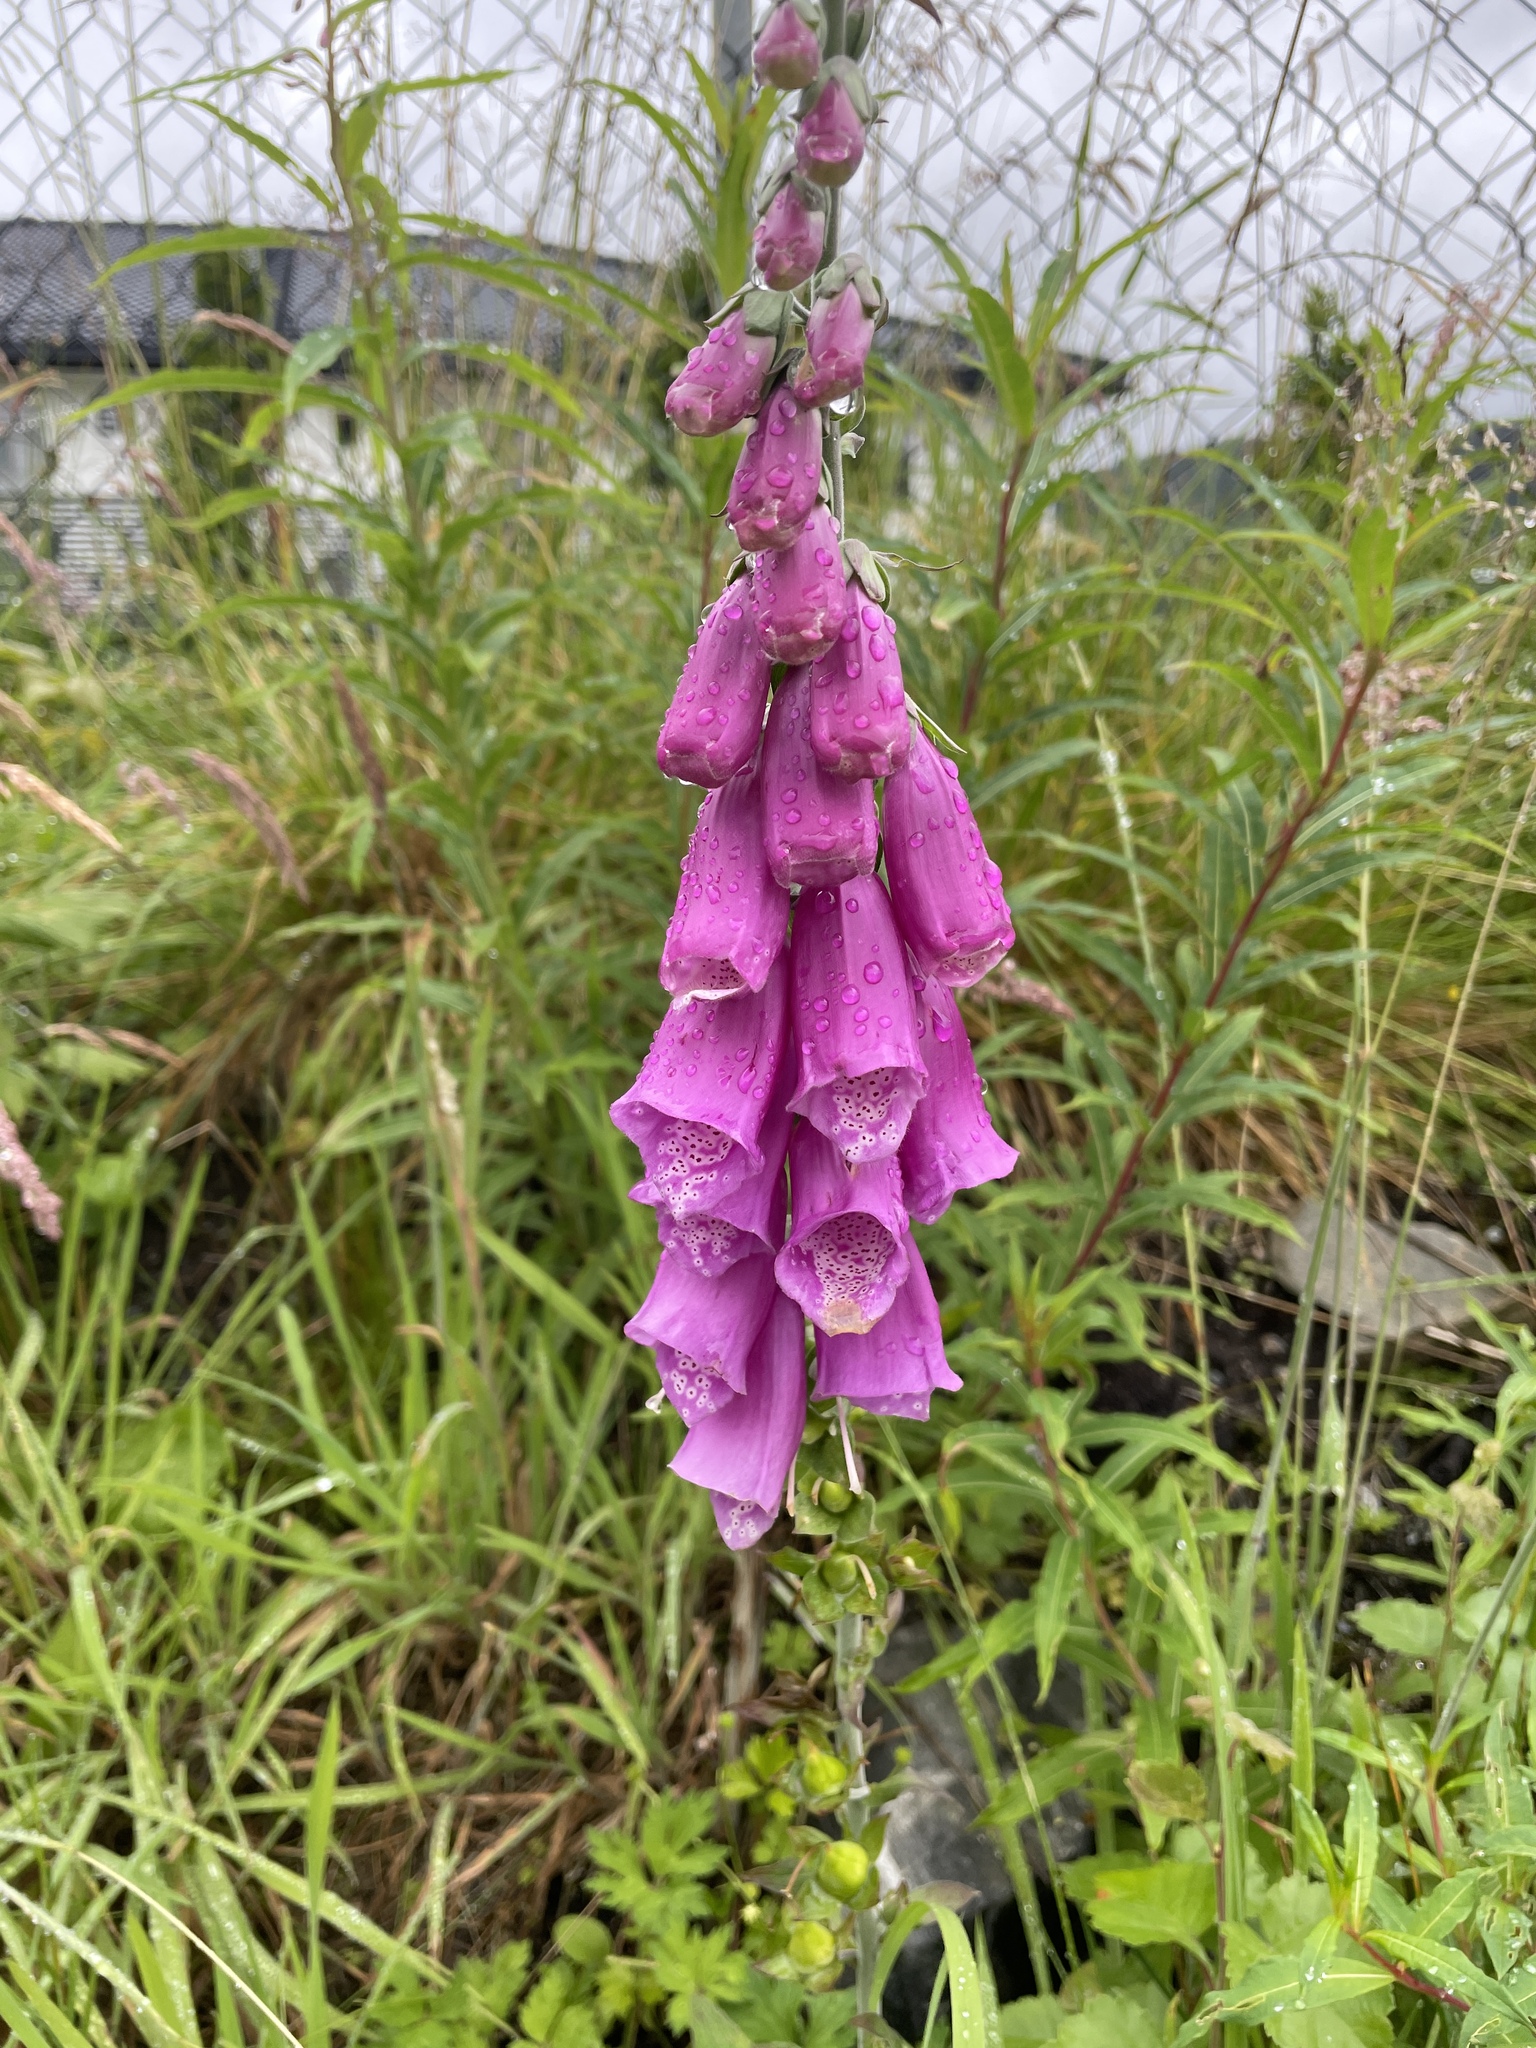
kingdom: Plantae
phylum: Tracheophyta
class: Magnoliopsida
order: Lamiales
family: Plantaginaceae
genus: Digitalis
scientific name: Digitalis purpurea
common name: Foxglove
